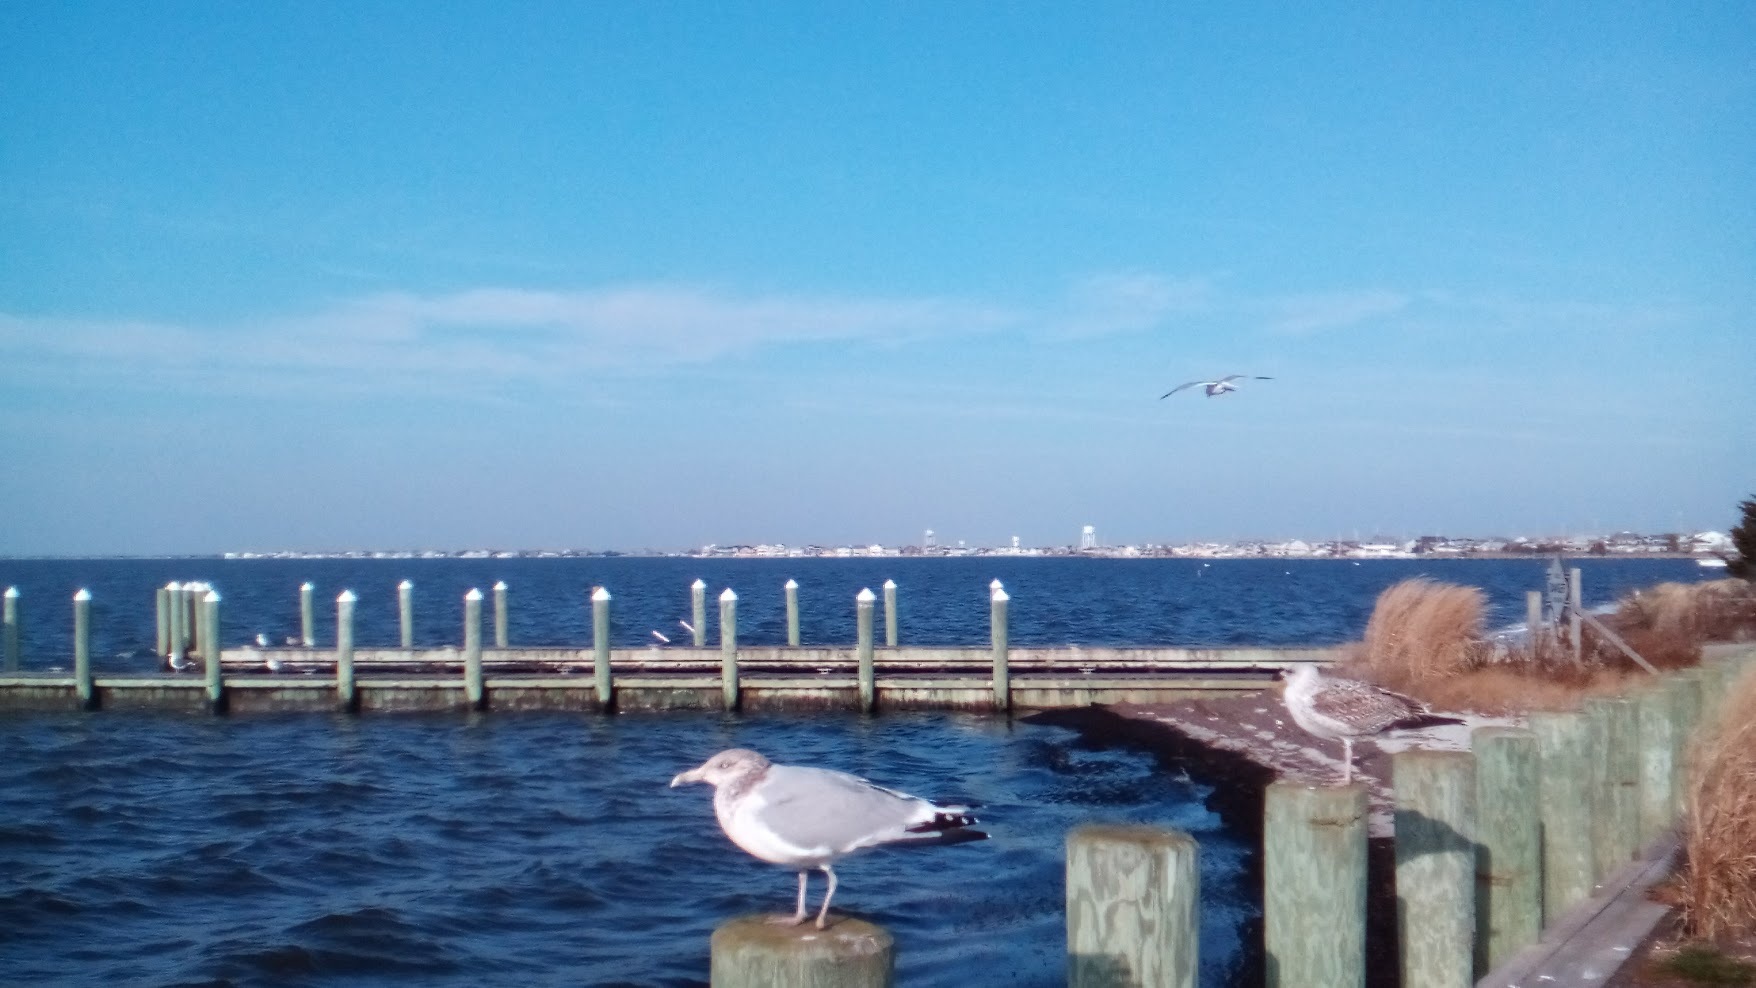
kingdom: Animalia
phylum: Chordata
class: Aves
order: Charadriiformes
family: Laridae
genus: Larus
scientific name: Larus argentatus
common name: Herring gull
